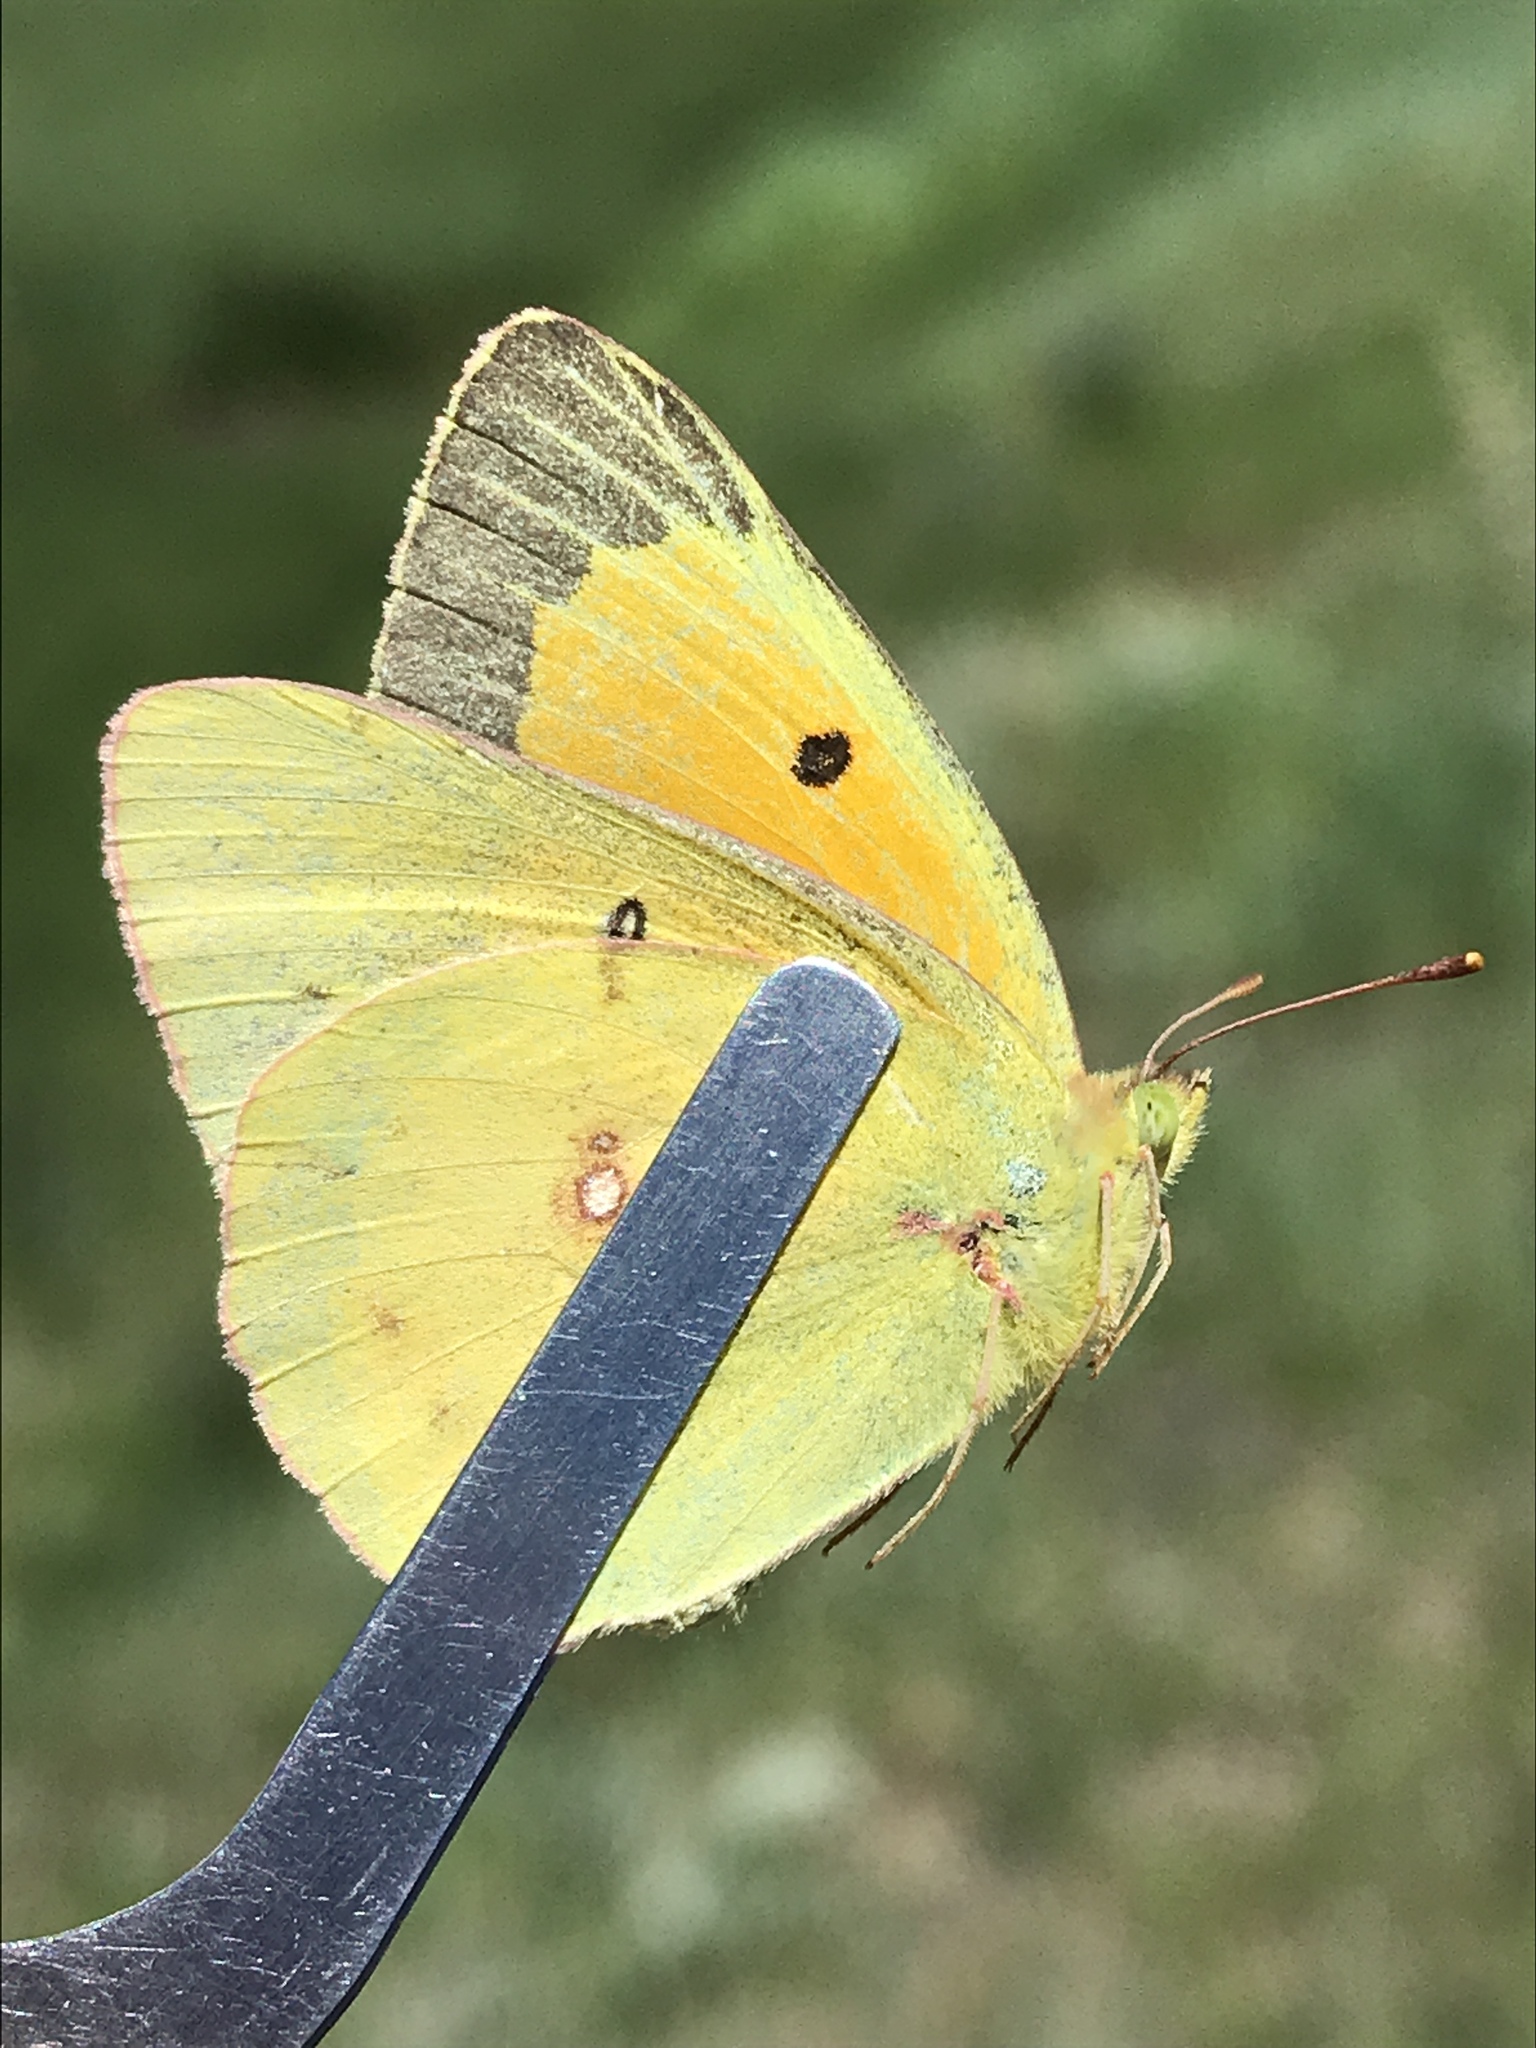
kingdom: Animalia
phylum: Arthropoda
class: Insecta
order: Lepidoptera
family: Pieridae
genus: Colias
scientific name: Colias eurytheme
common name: Alfalfa butterfly
